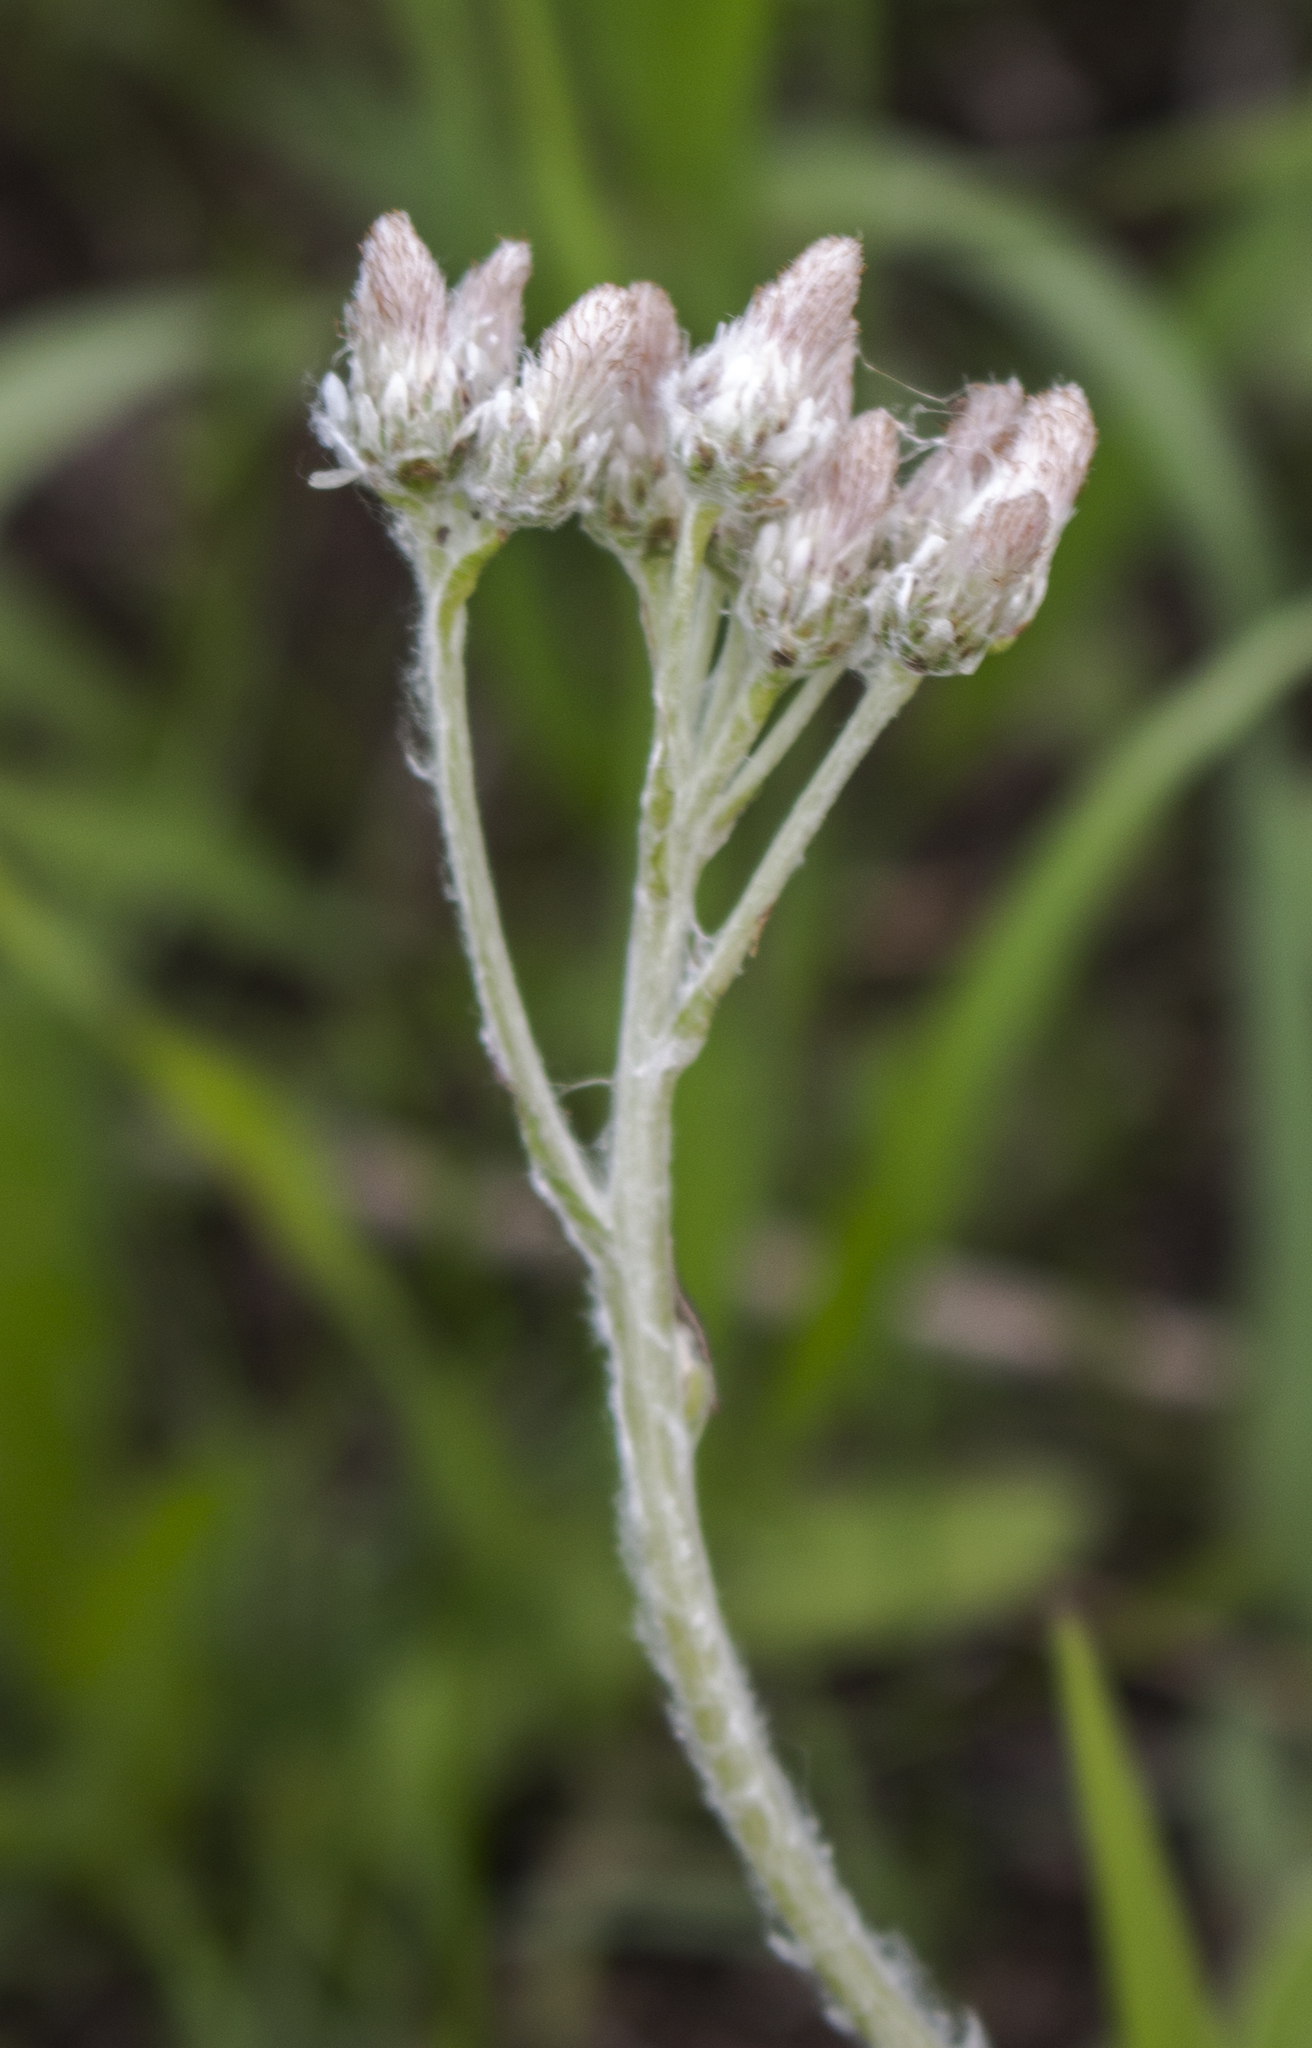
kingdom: Plantae
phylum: Tracheophyta
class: Magnoliopsida
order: Asterales
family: Asteraceae
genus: Antennaria
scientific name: Antennaria plantaginifolia
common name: Plantain-leaved pussytoes
